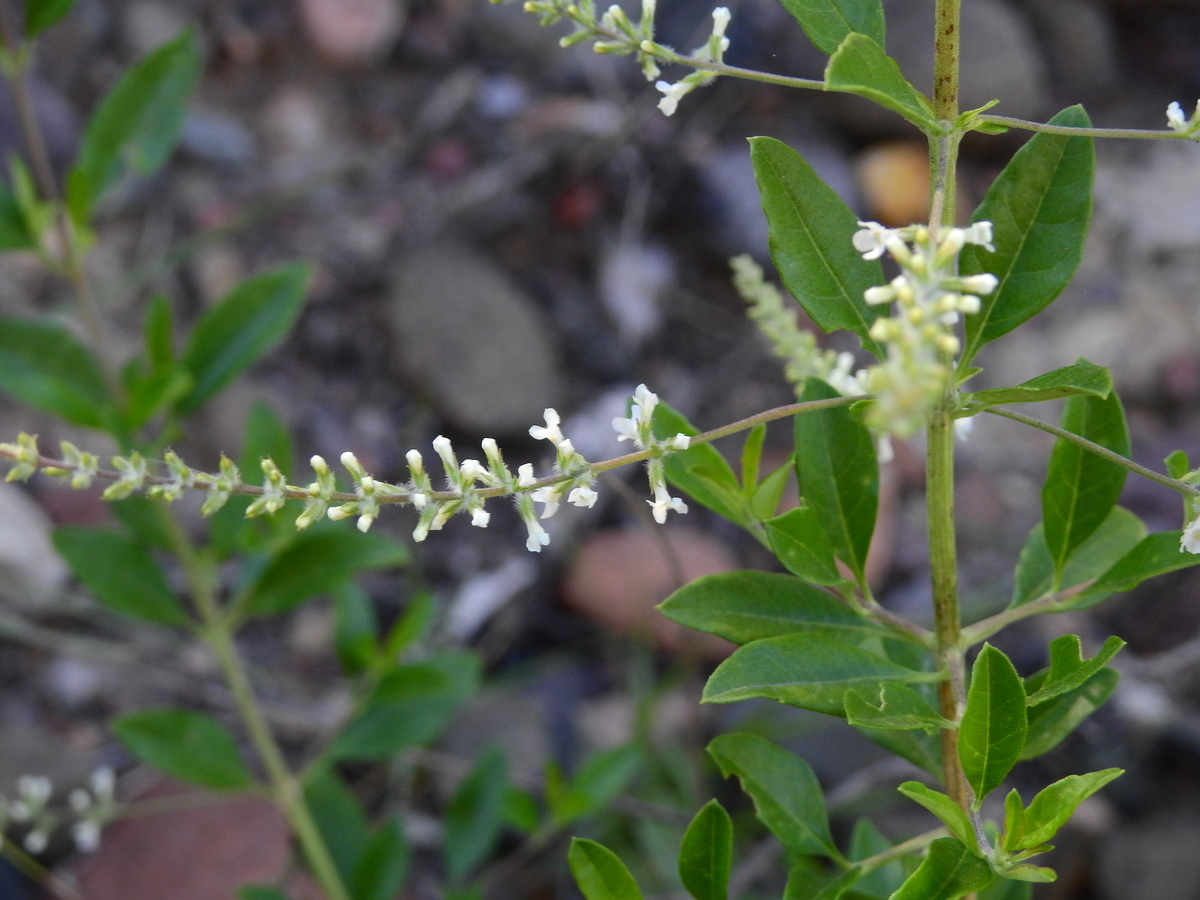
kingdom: Plantae
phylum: Tracheophyta
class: Magnoliopsida
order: Lamiales
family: Verbenaceae
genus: Aloysia
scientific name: Aloysia gratissima
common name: Common bee-brush
